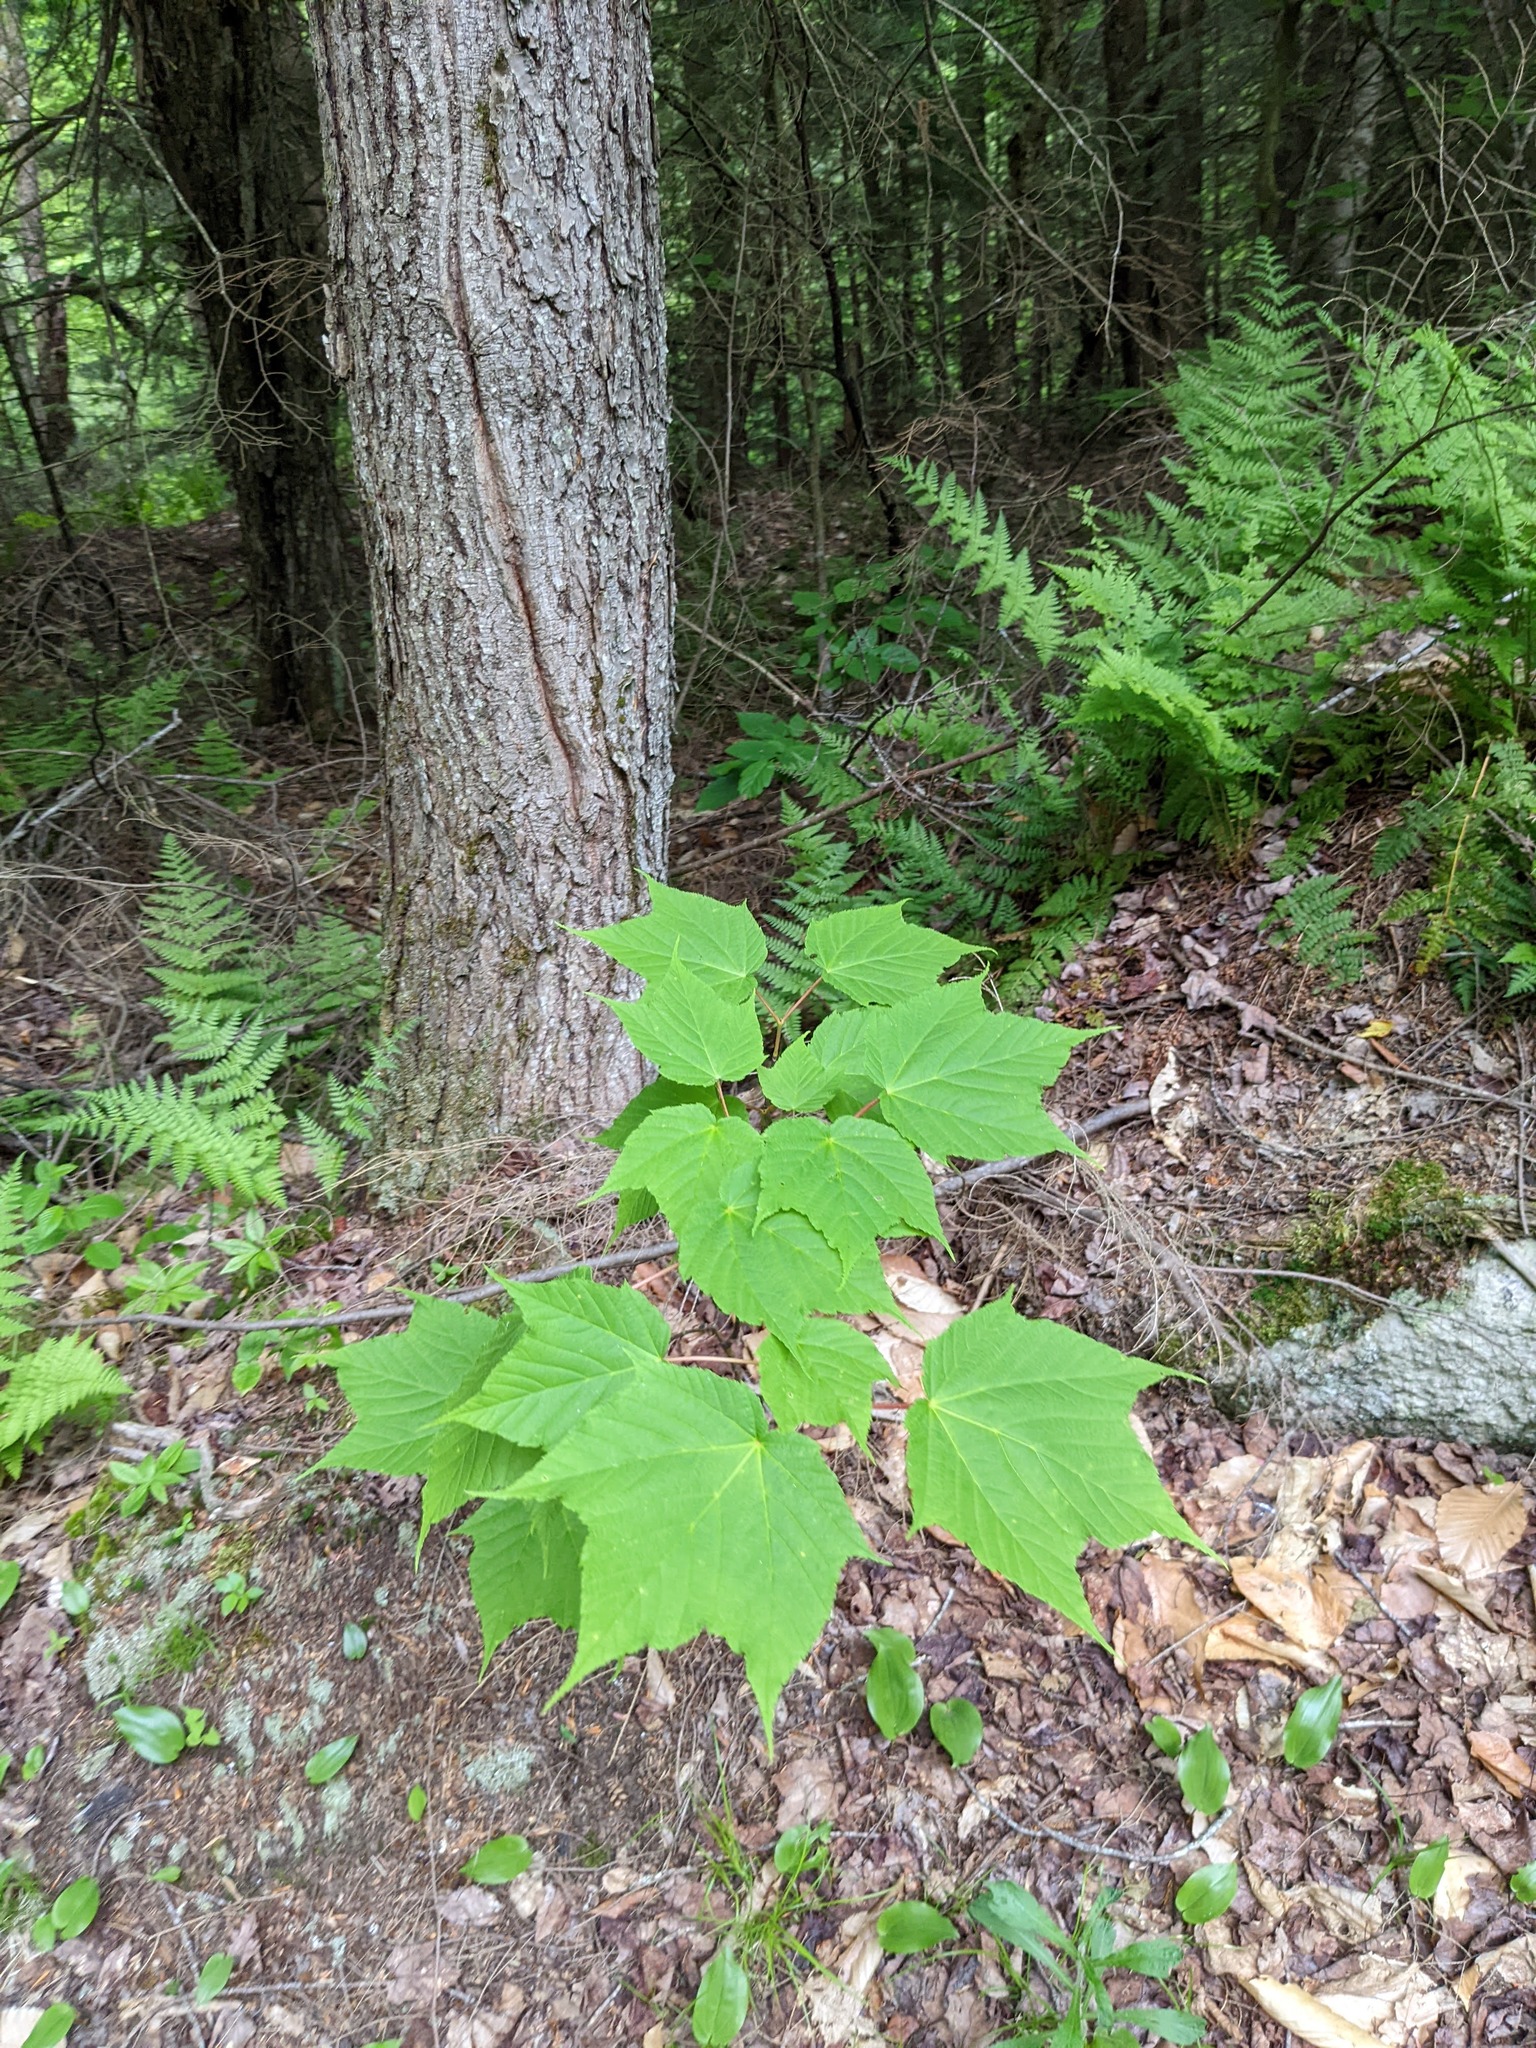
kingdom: Plantae
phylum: Tracheophyta
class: Magnoliopsida
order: Sapindales
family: Sapindaceae
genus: Acer
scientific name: Acer pensylvanicum
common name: Moosewood
